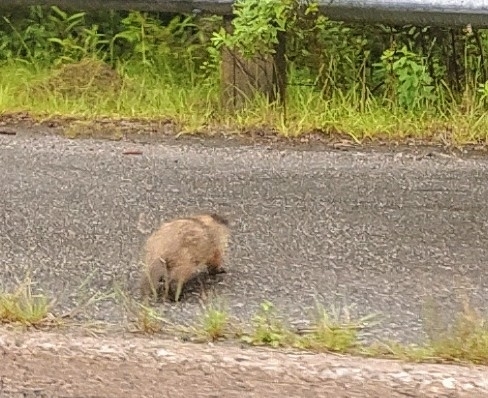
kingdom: Animalia
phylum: Chordata
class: Mammalia
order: Rodentia
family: Sciuridae
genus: Marmota
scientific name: Marmota monax
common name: Groundhog
